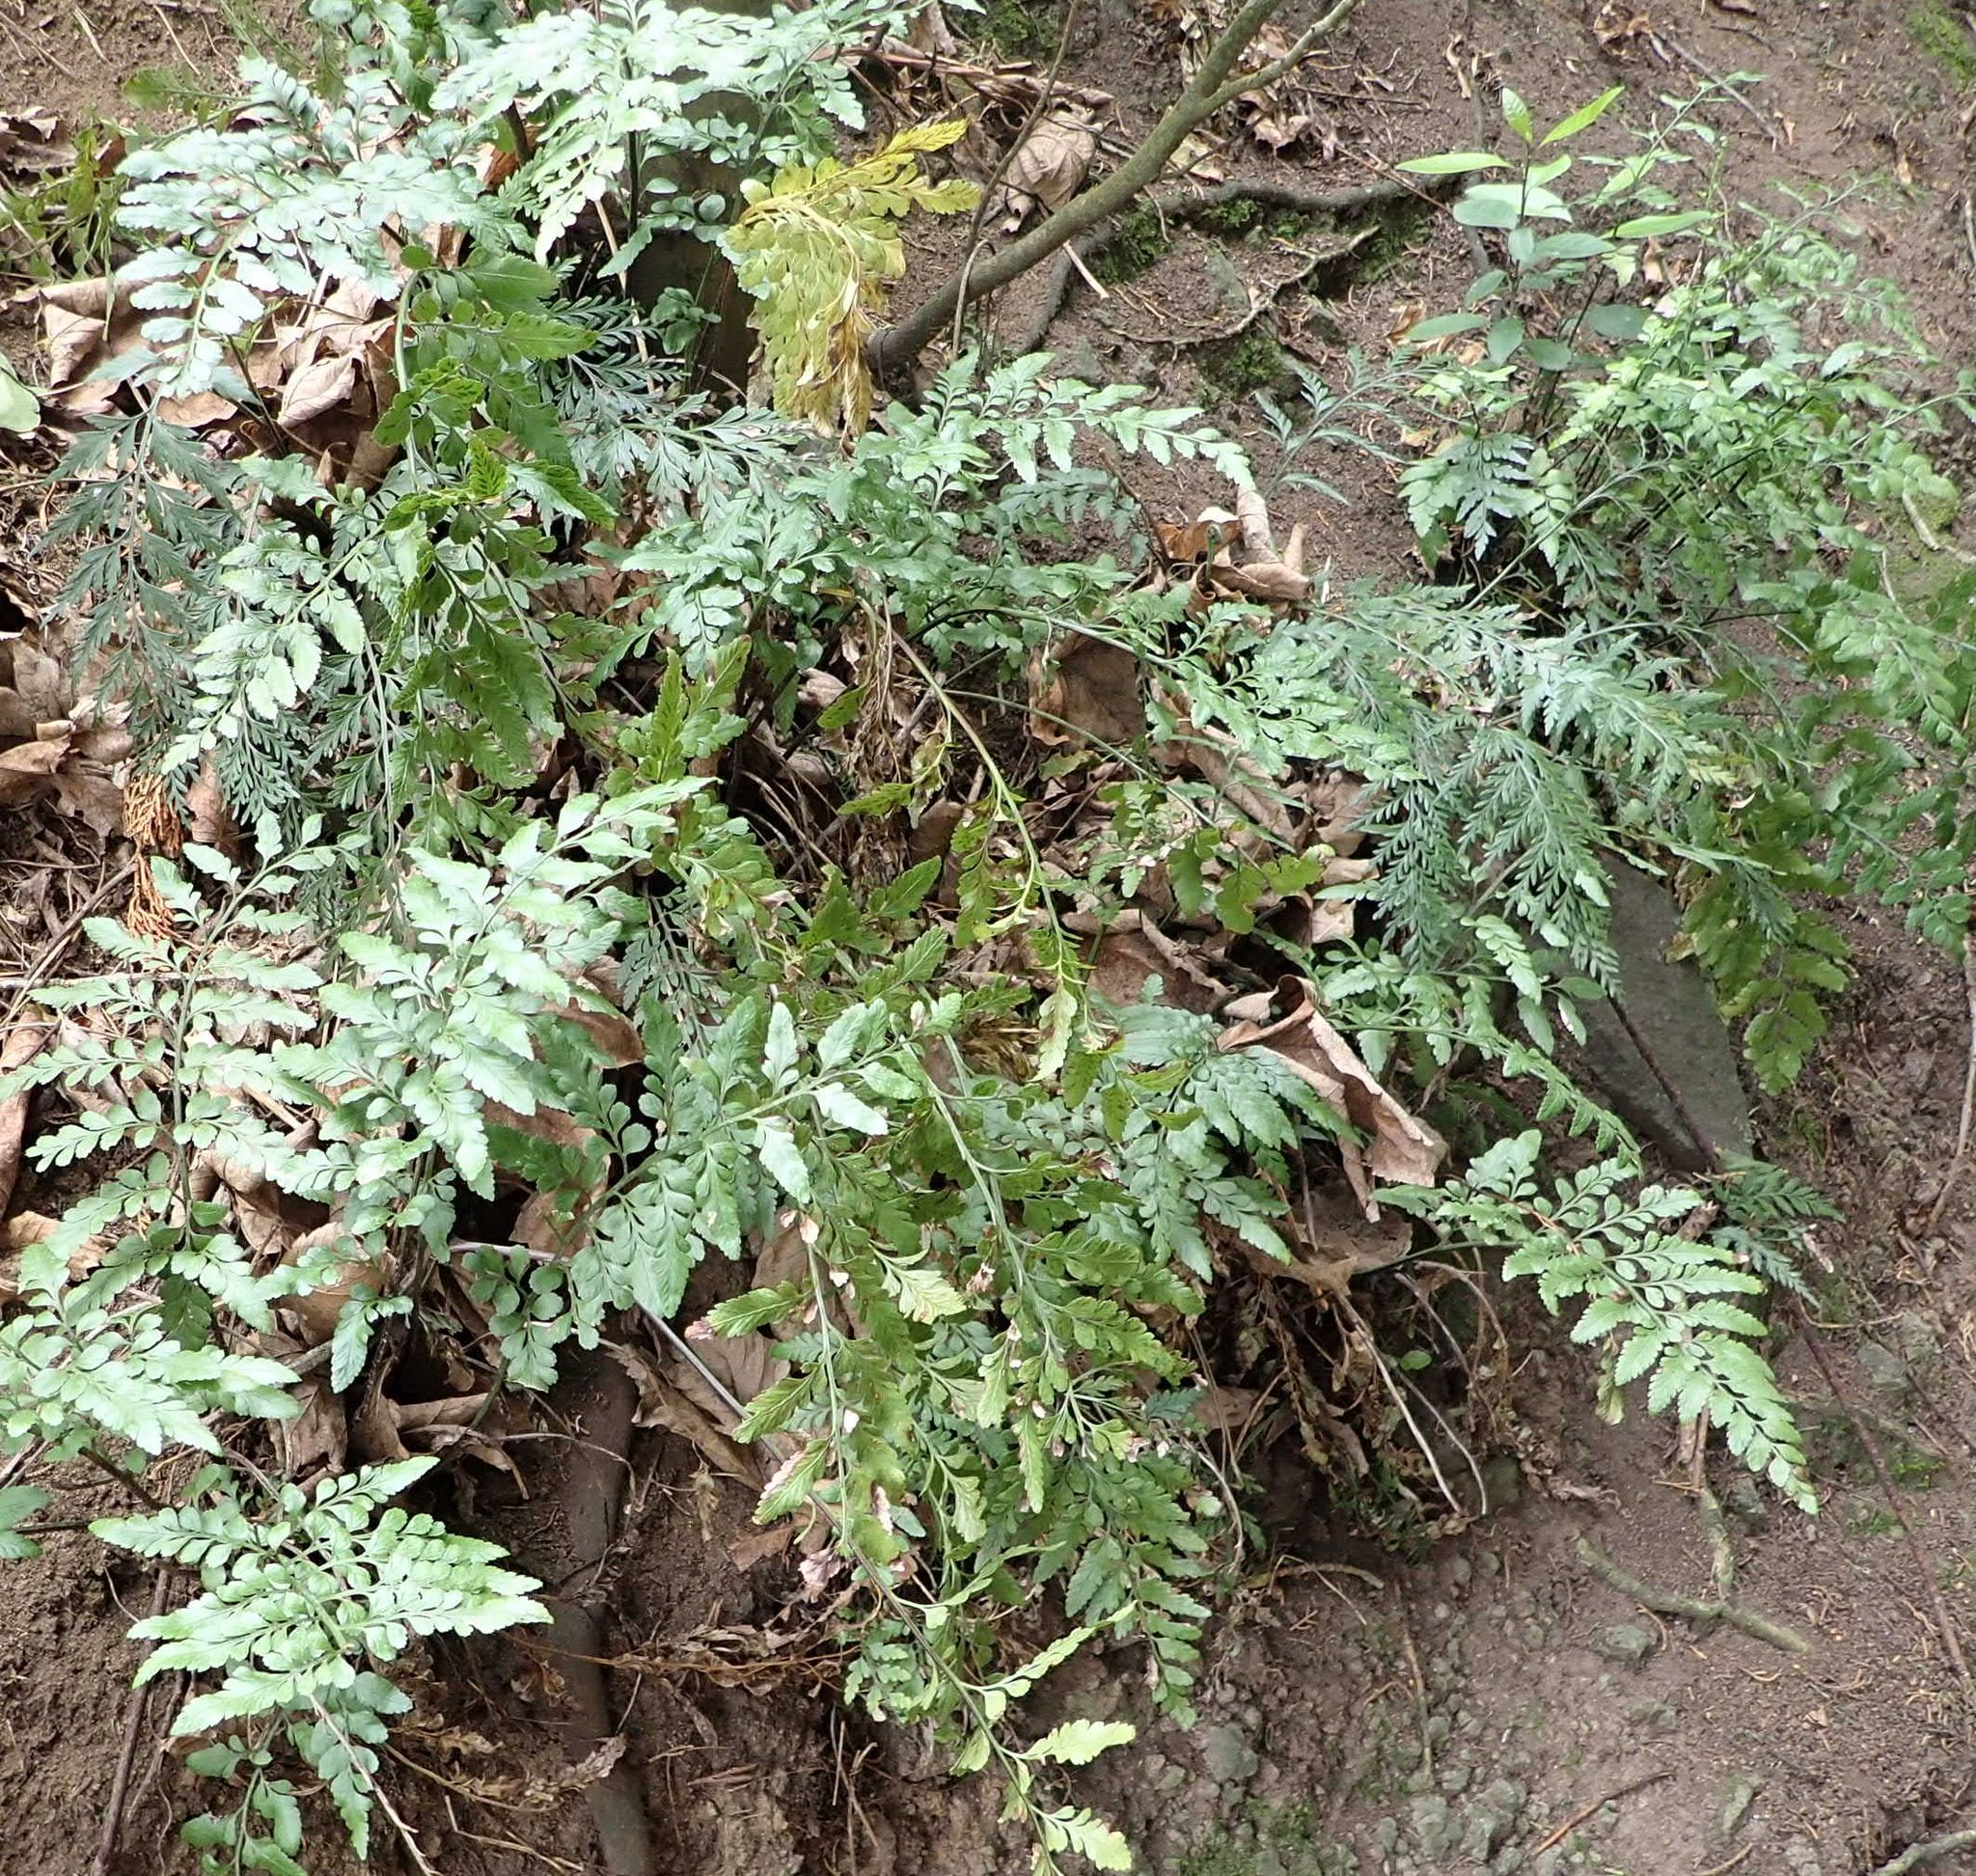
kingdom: Plantae
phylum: Tracheophyta
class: Polypodiopsida
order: Polypodiales
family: Aspleniaceae
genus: Asplenium
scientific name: Asplenium lyallii
